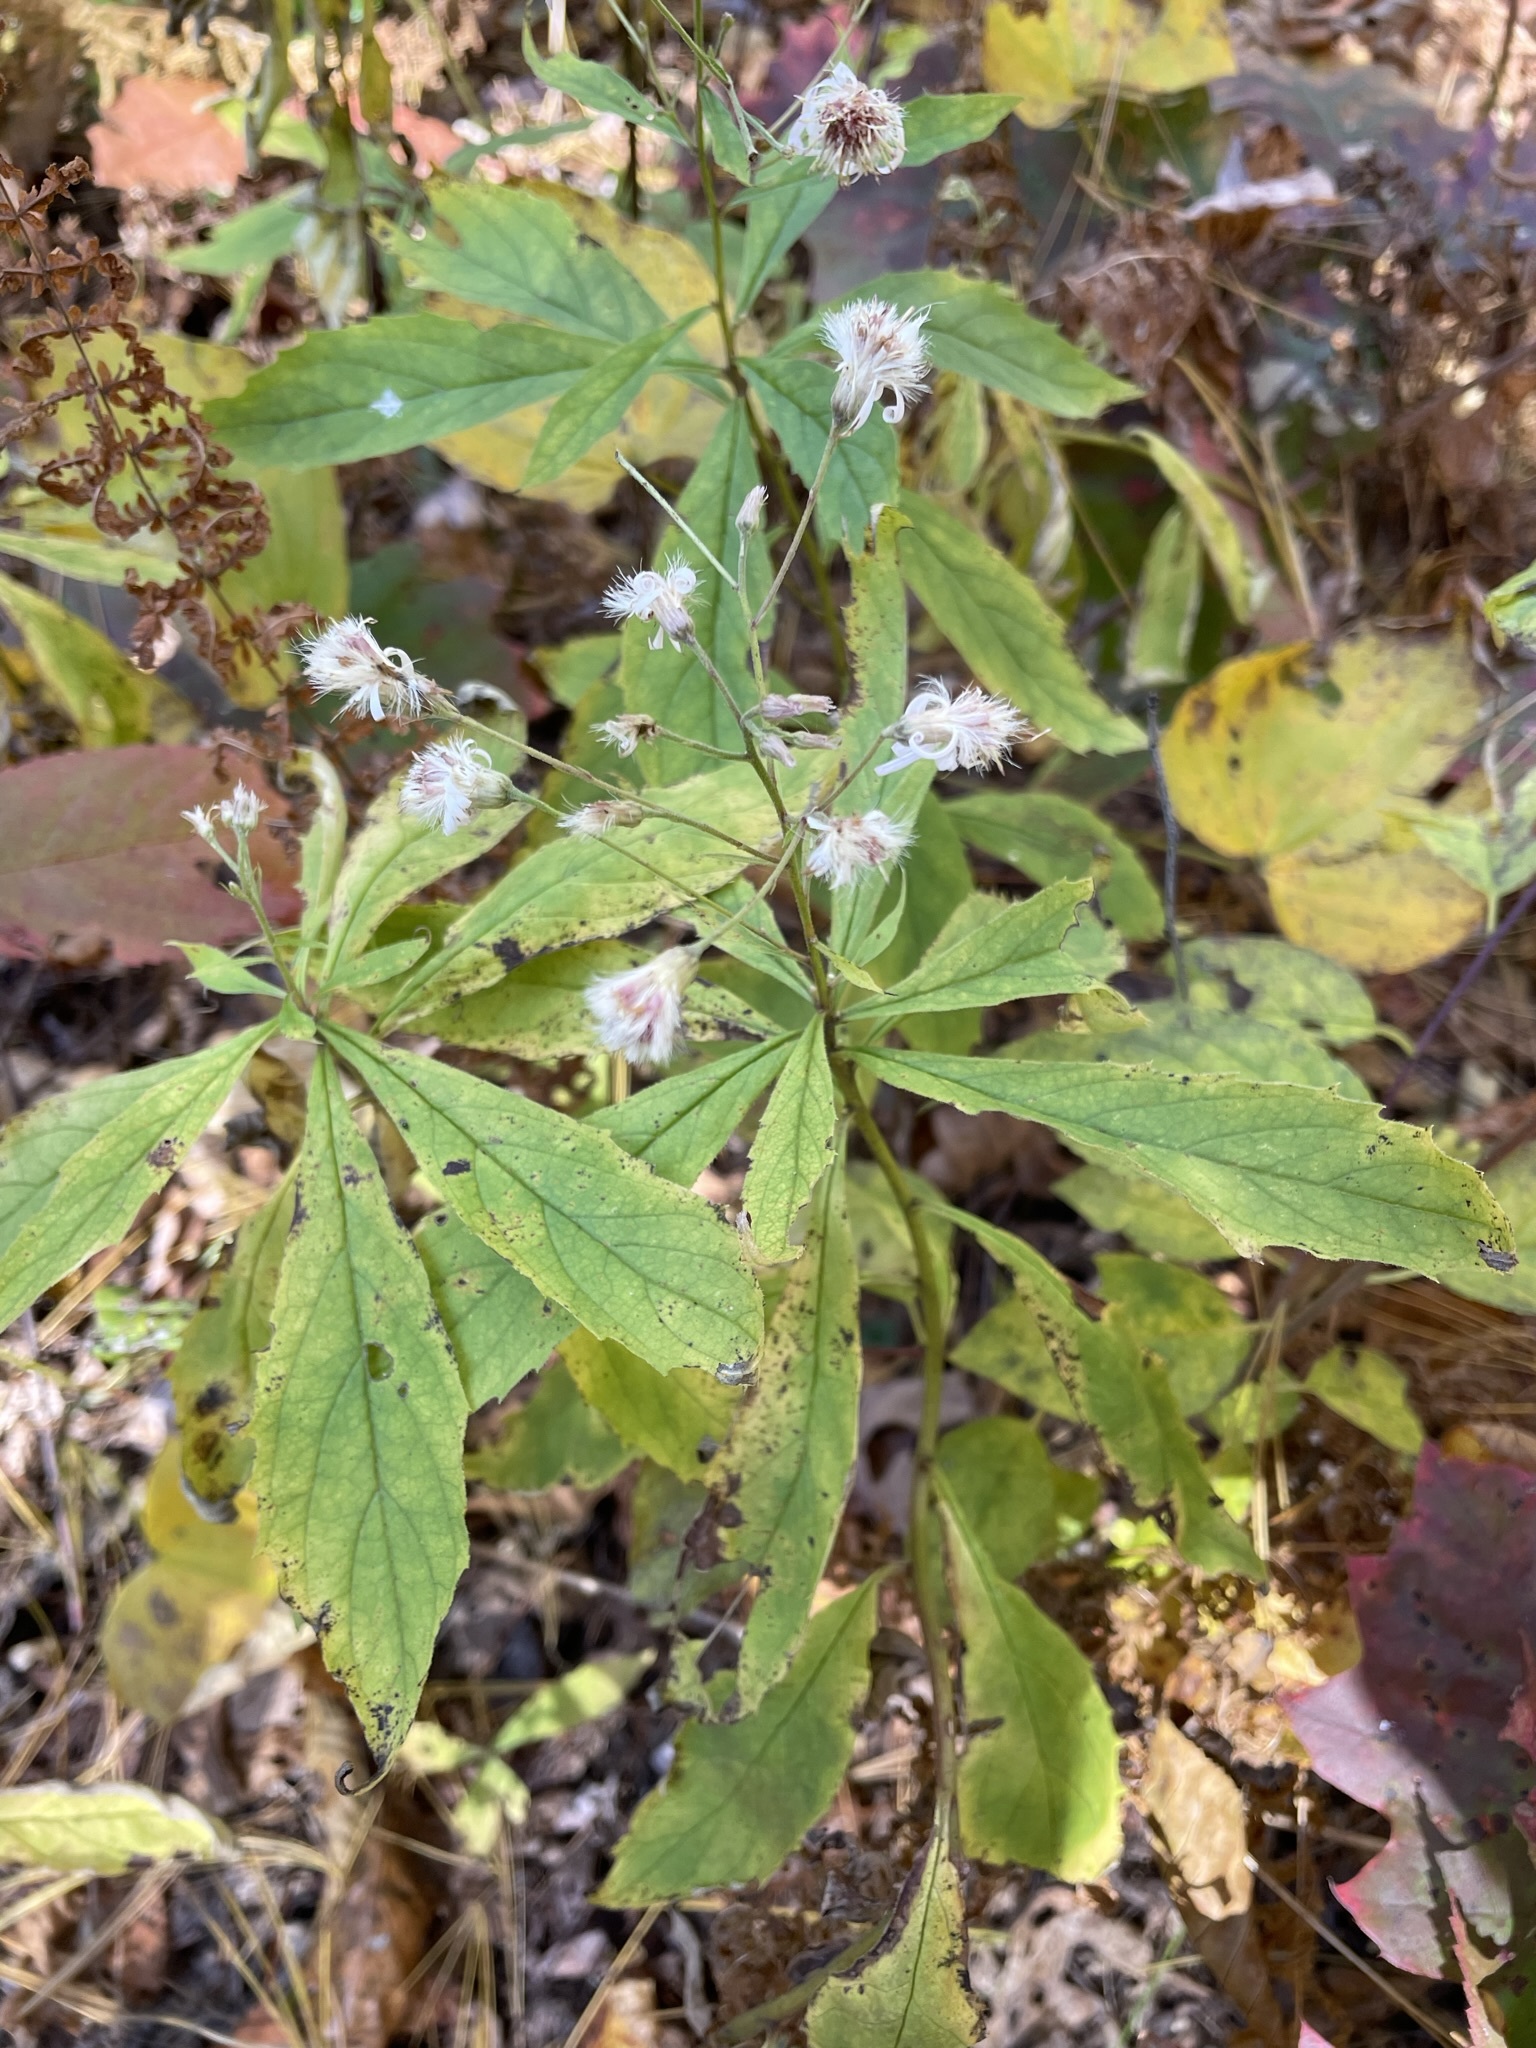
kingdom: Plantae
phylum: Tracheophyta
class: Magnoliopsida
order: Asterales
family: Asteraceae
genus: Oclemena
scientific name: Oclemena acuminata
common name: Mountain aster
